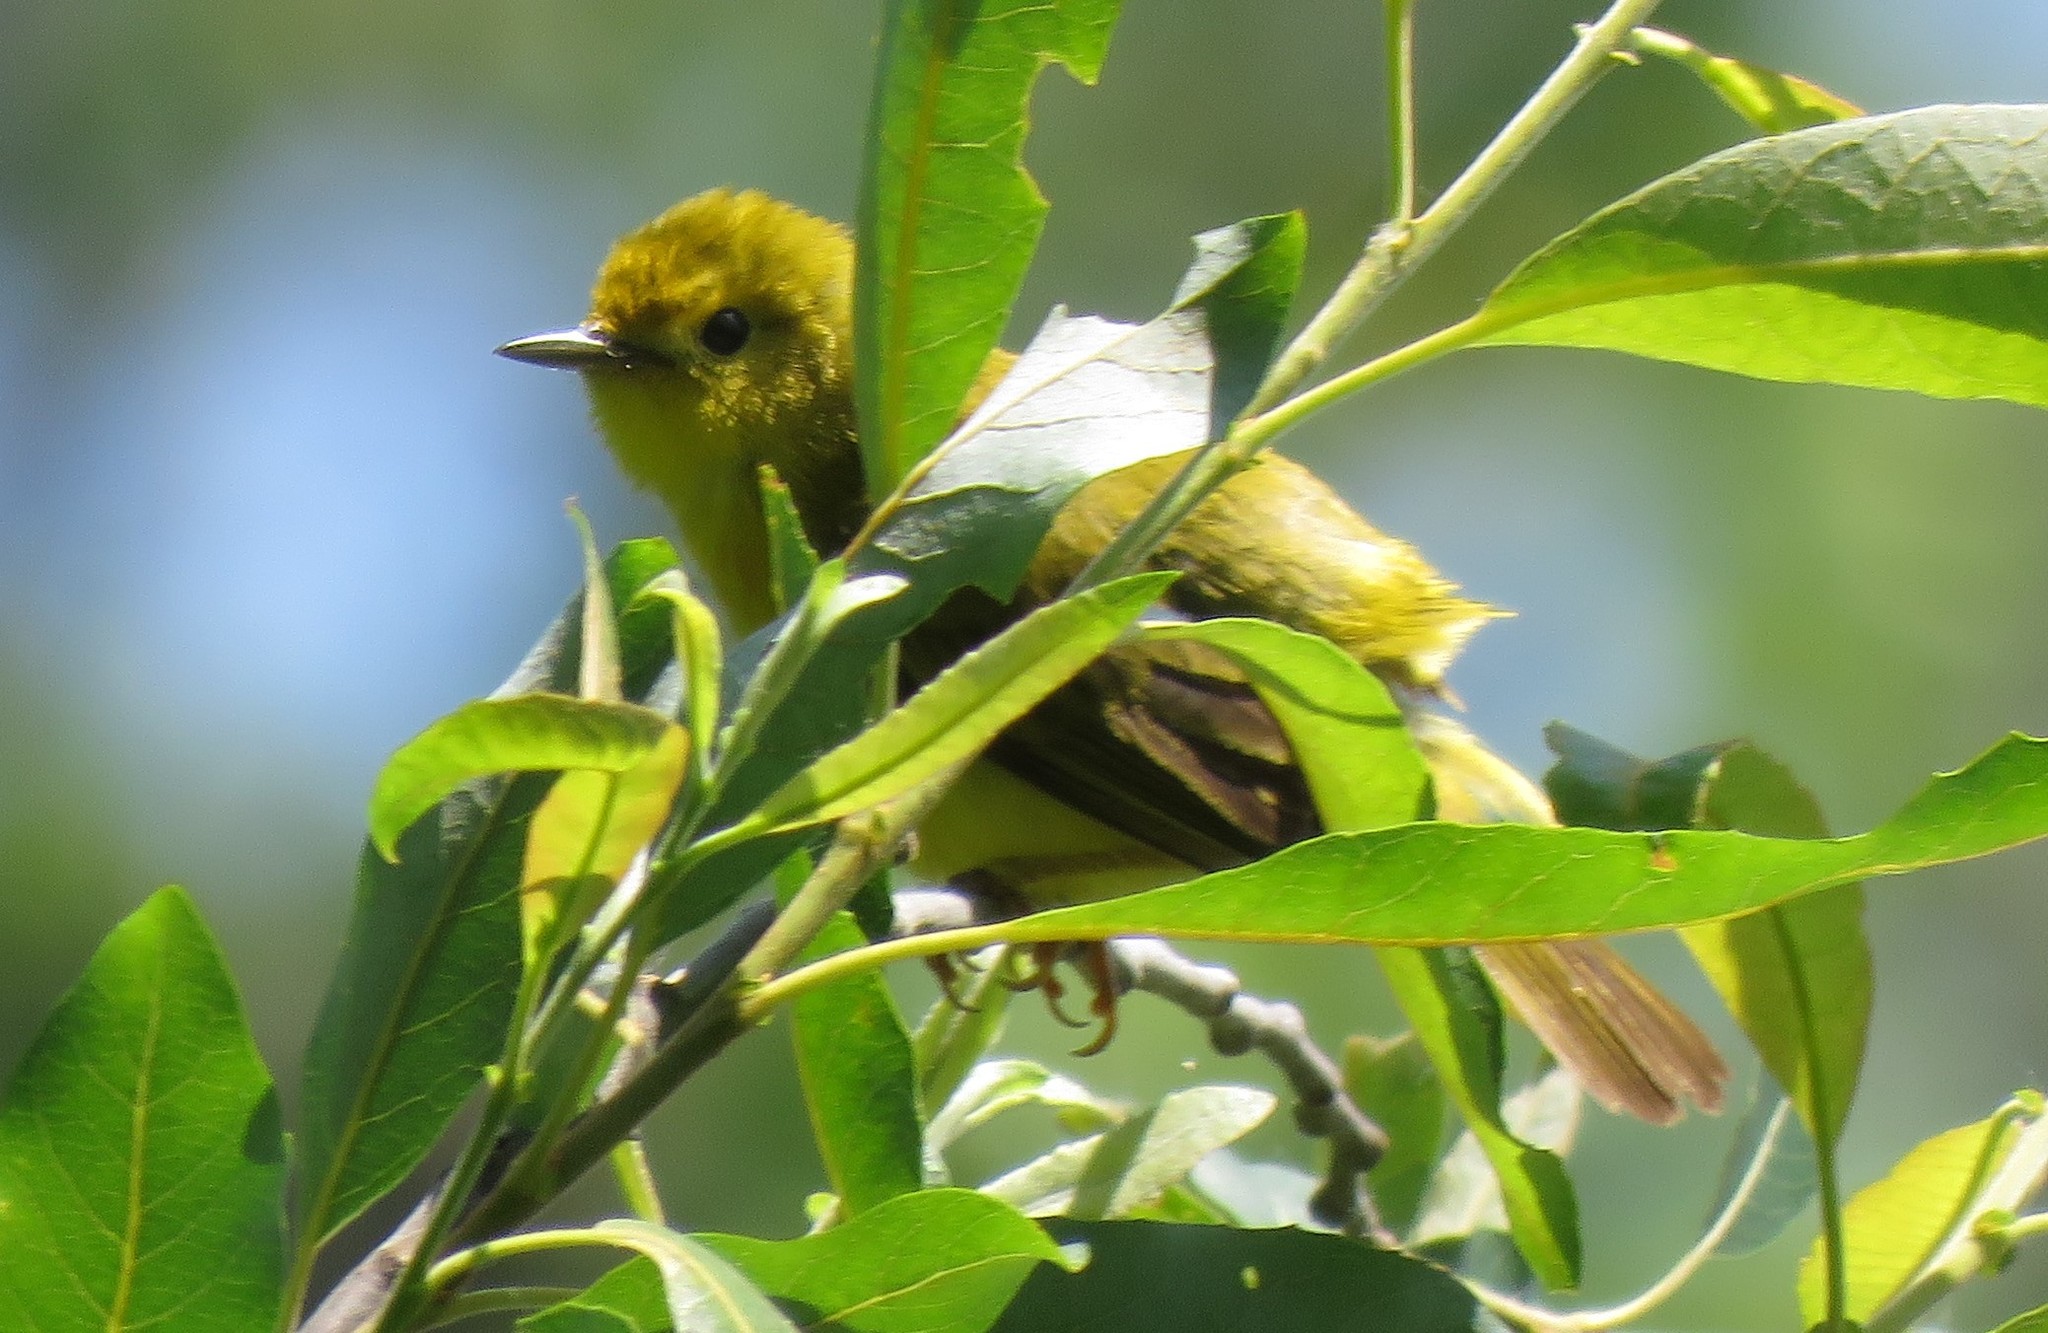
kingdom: Animalia
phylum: Chordata
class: Aves
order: Passeriformes
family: Parulidae
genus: Setophaga
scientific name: Setophaga petechia
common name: Yellow warbler
